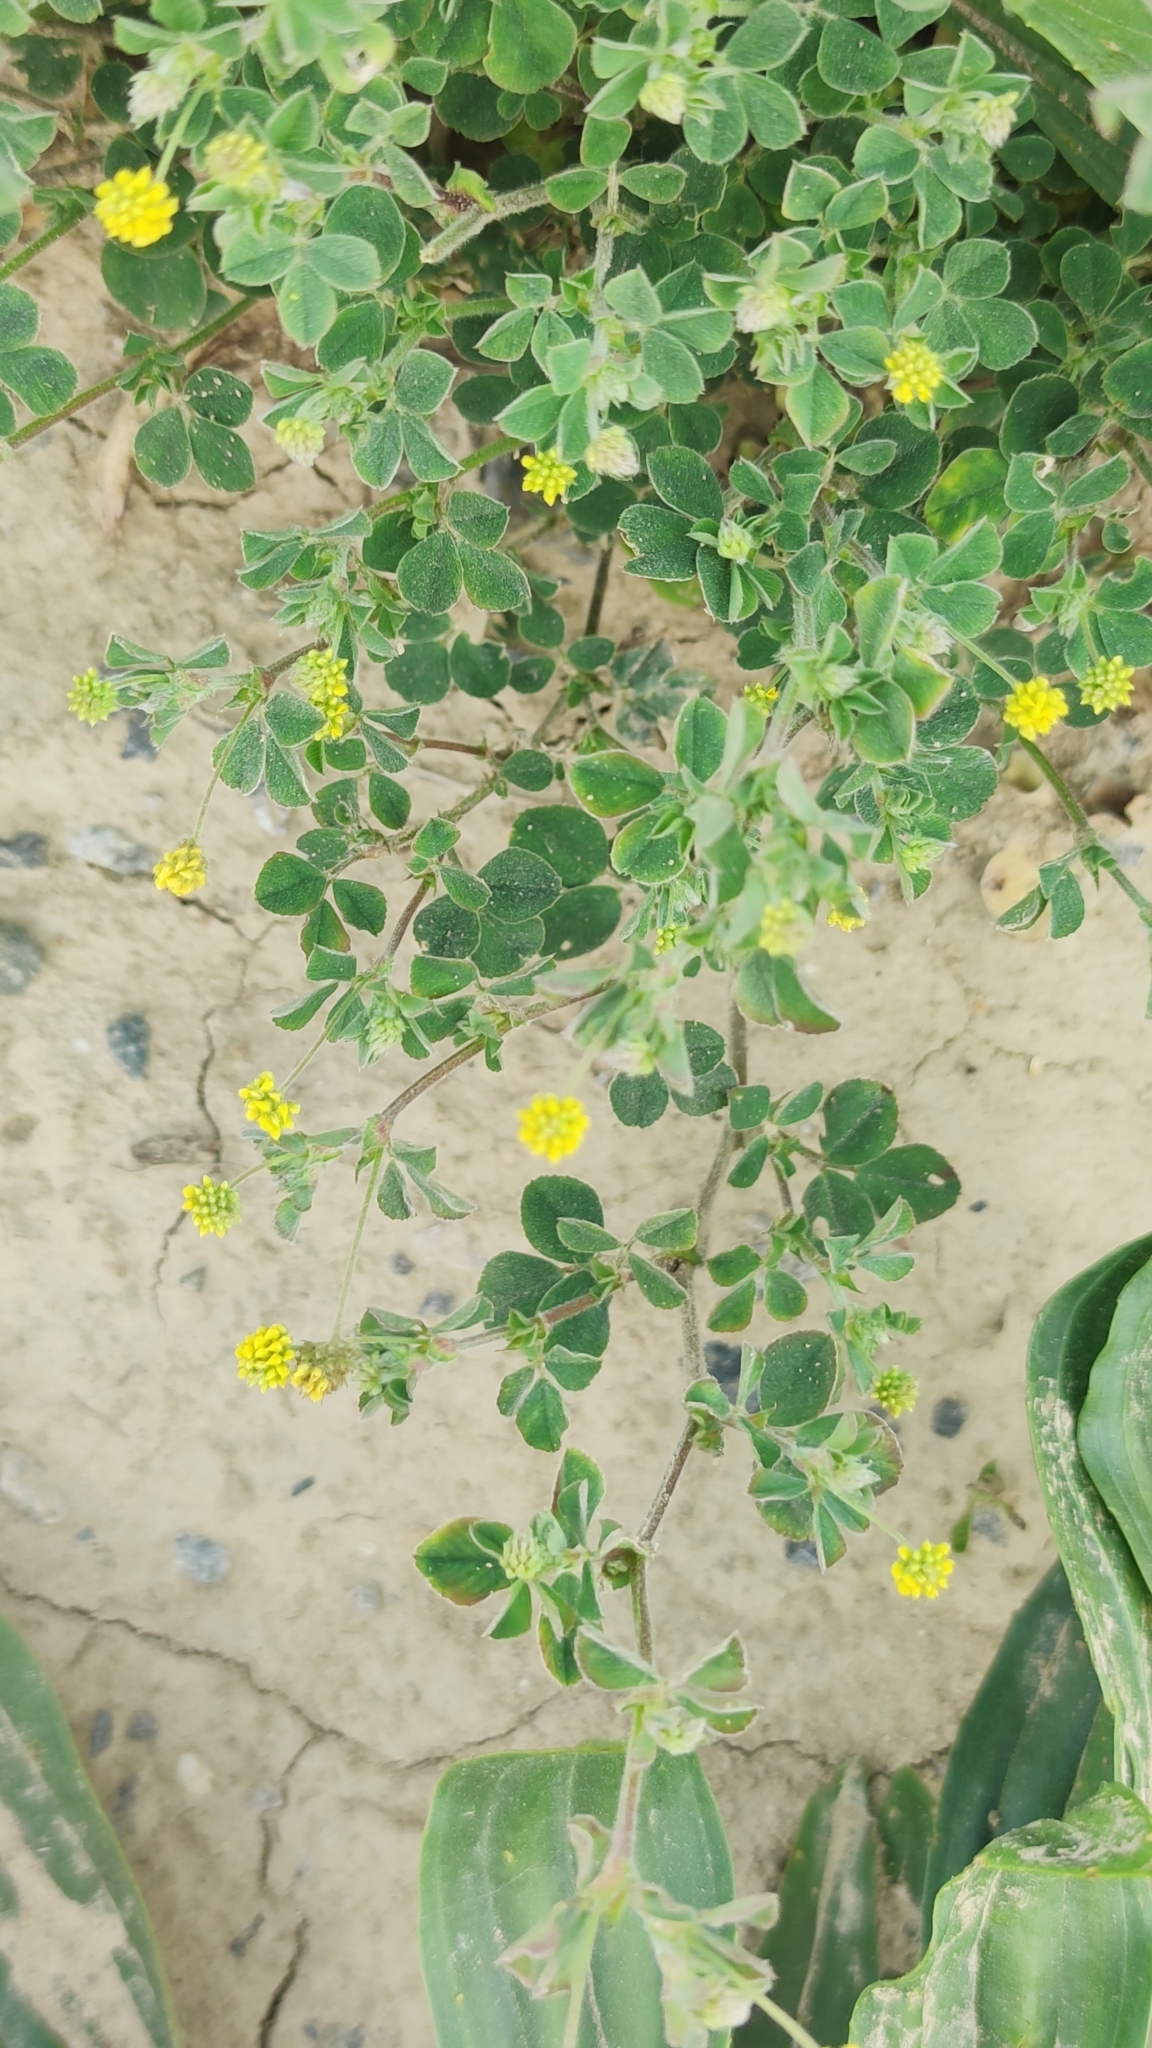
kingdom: Plantae
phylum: Tracheophyta
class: Magnoliopsida
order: Fabales
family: Fabaceae
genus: Medicago
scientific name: Medicago lupulina
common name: Black medick
